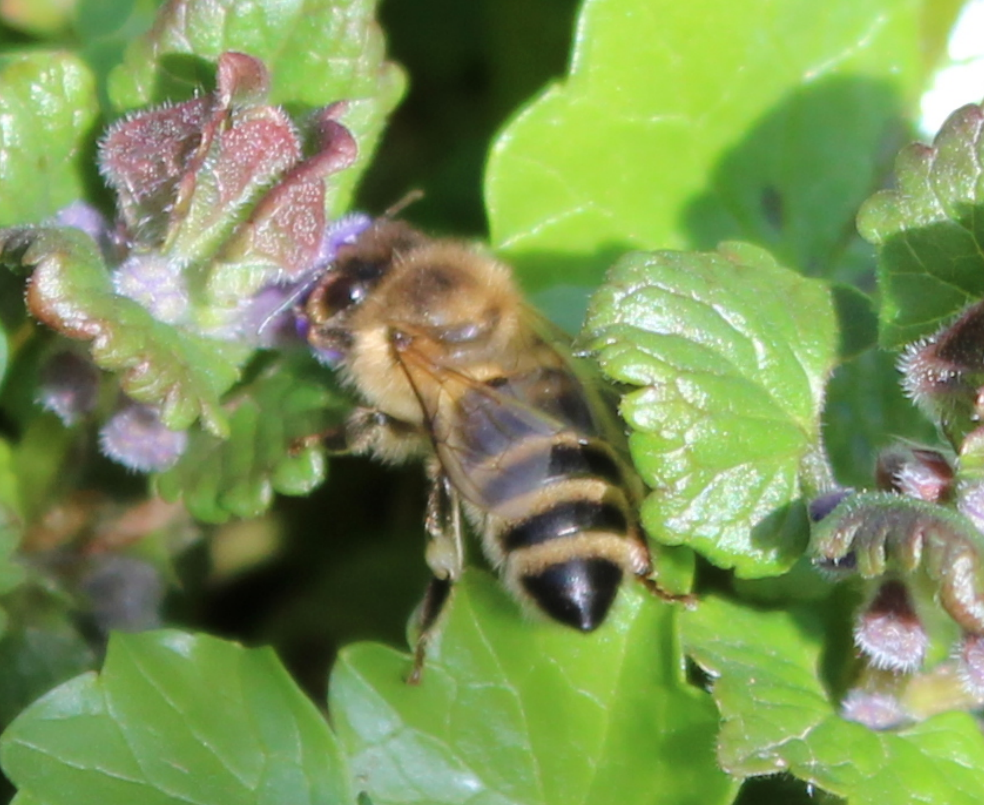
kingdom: Animalia
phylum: Arthropoda
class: Insecta
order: Hymenoptera
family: Apidae
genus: Apis
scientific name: Apis mellifera
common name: Honey bee
